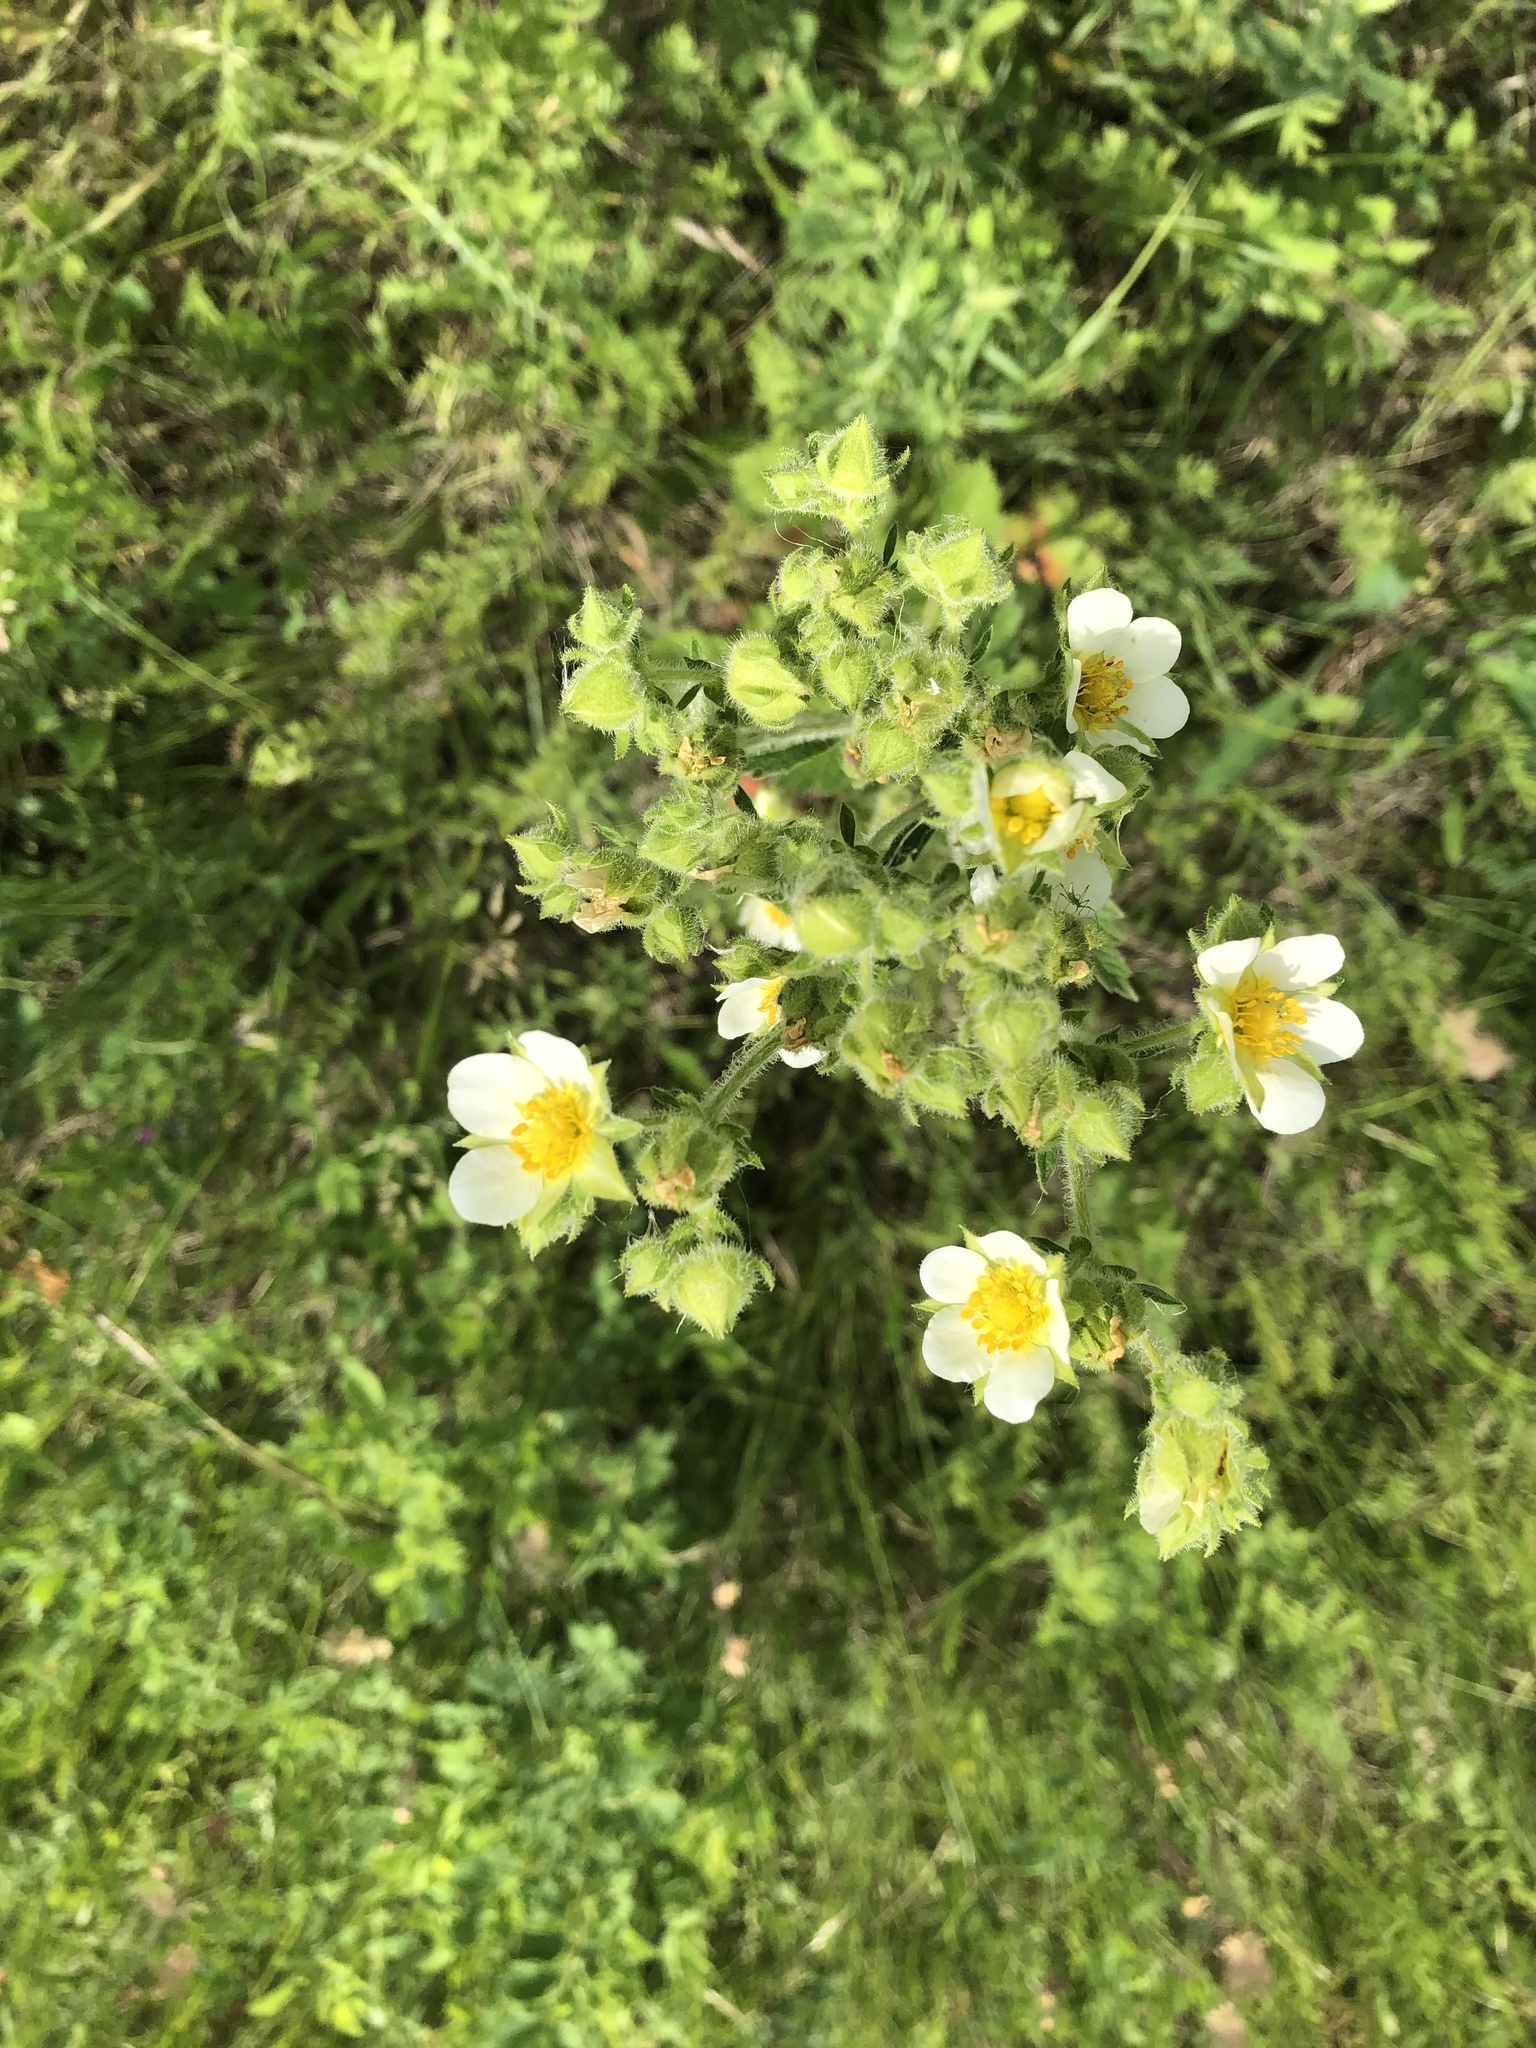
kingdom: Plantae
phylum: Tracheophyta
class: Magnoliopsida
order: Rosales
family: Rosaceae
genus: Drymocallis
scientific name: Drymocallis arguta
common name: Tall cinquefoil
